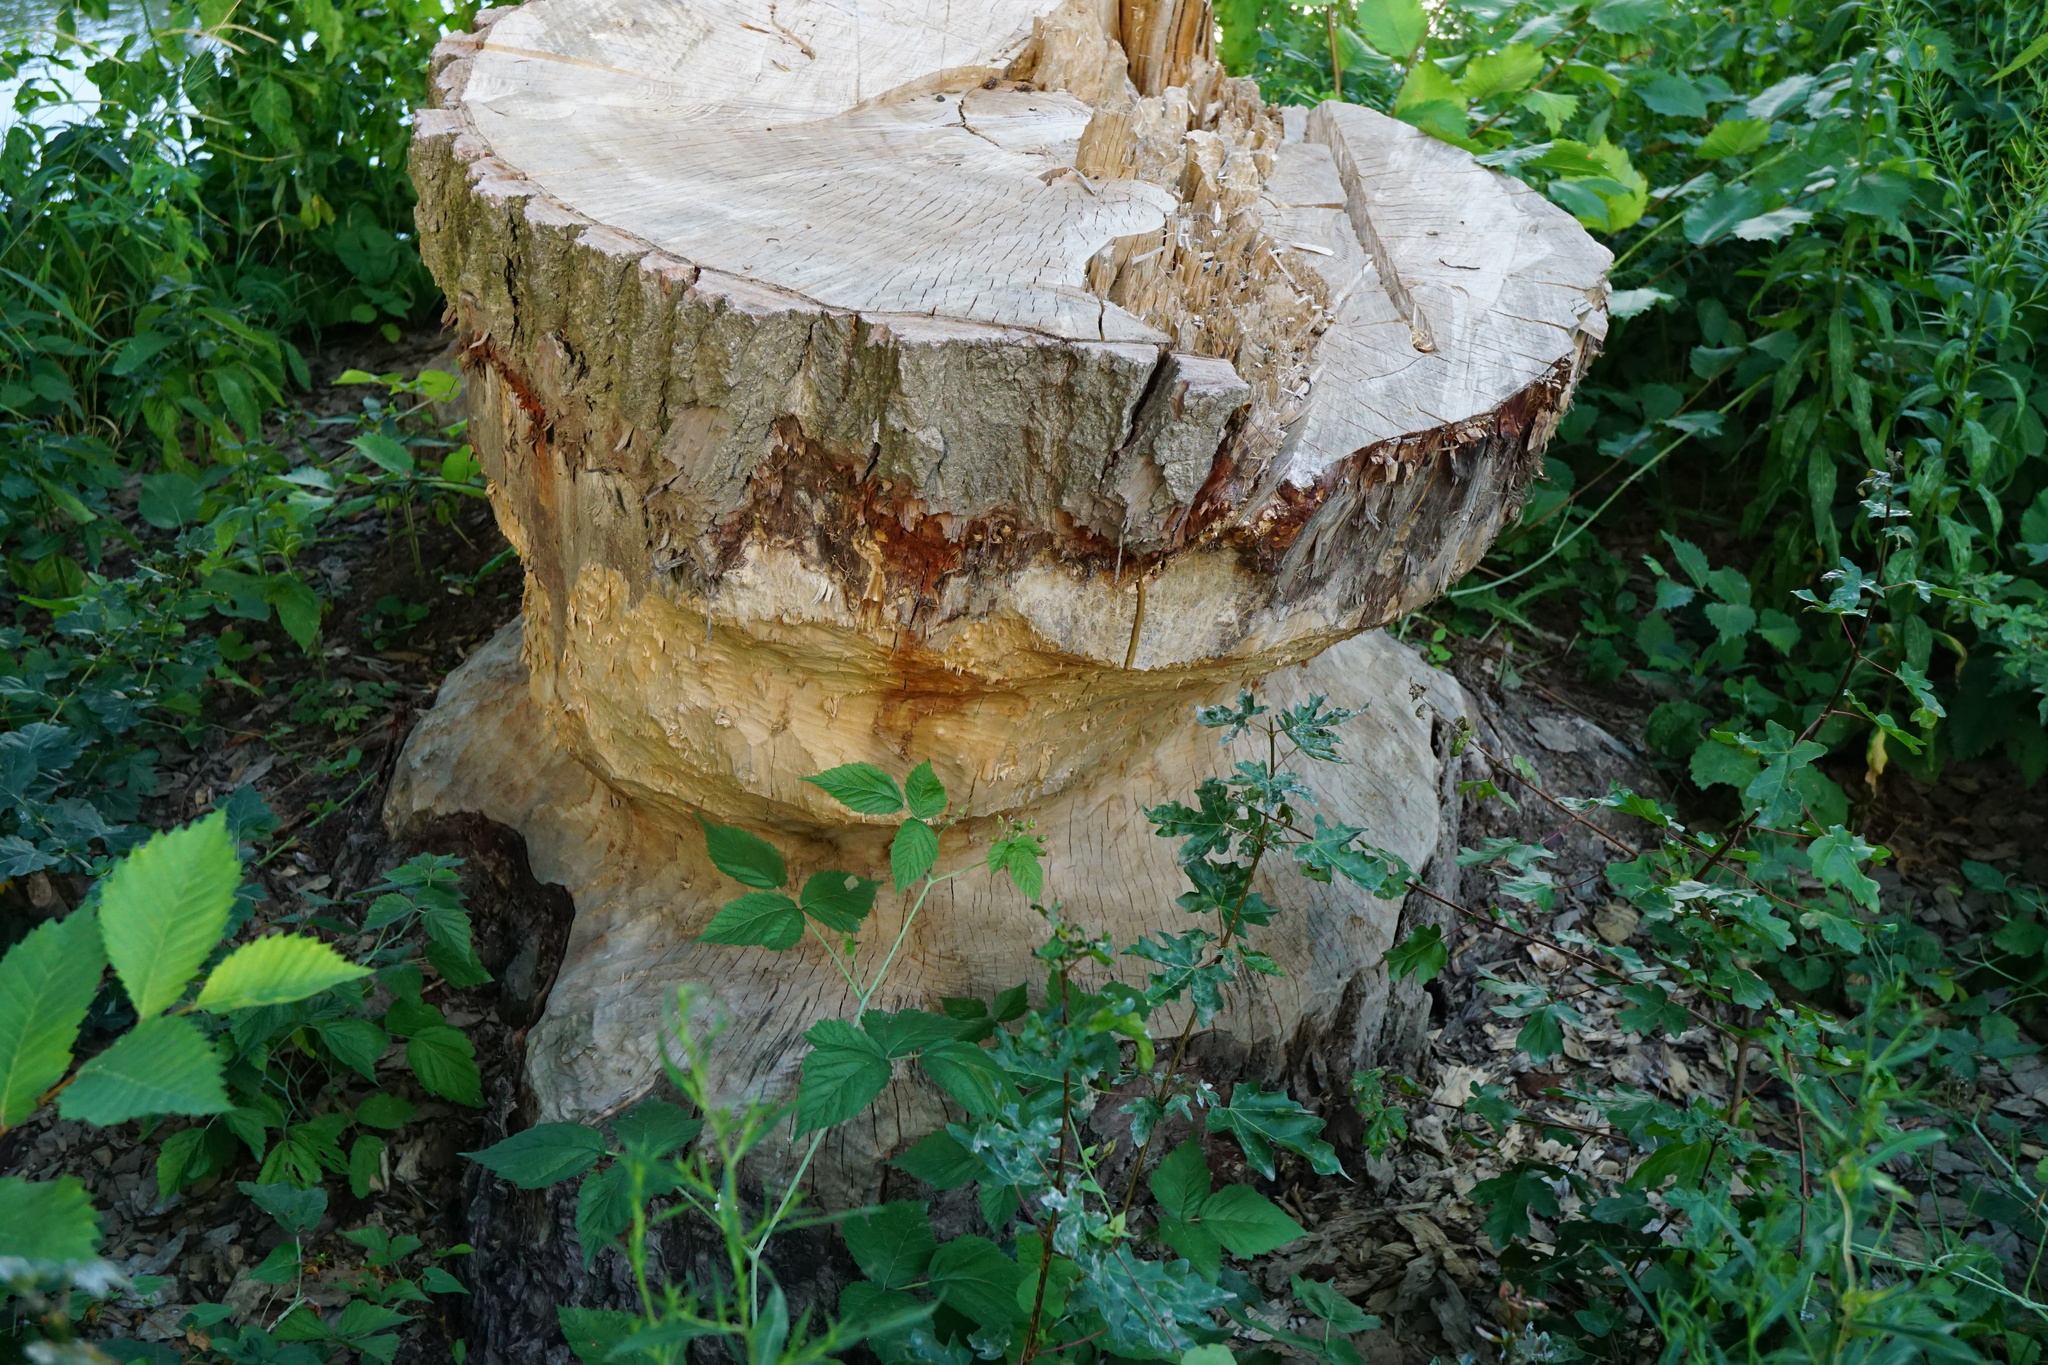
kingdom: Animalia
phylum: Chordata
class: Mammalia
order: Rodentia
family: Castoridae
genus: Castor
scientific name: Castor fiber
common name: Eurasian beaver
